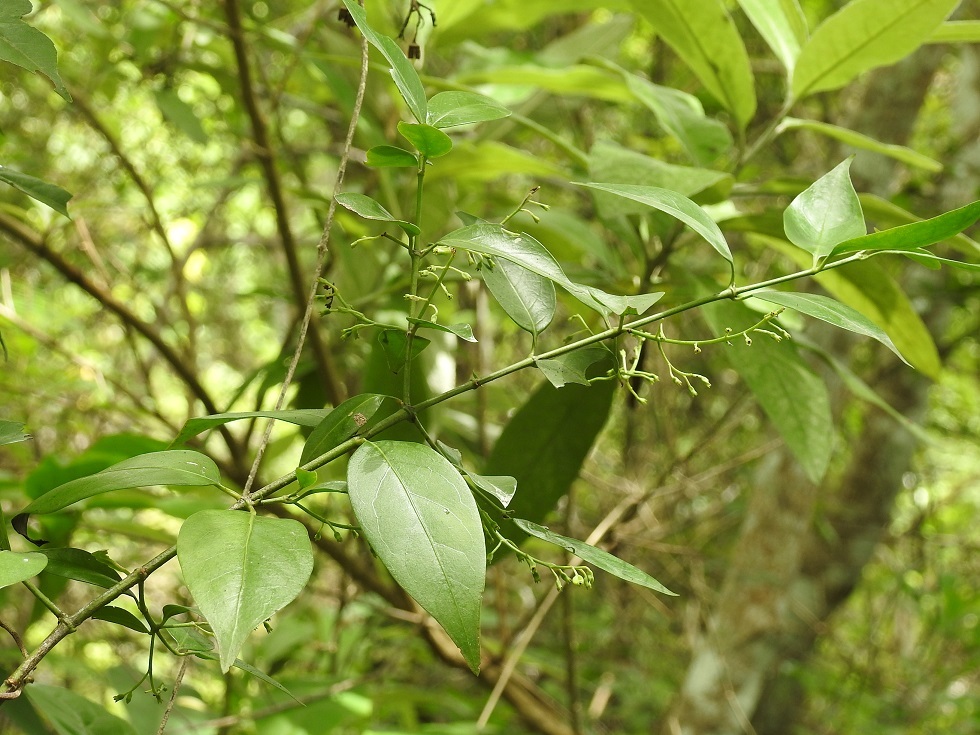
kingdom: Plantae
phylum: Tracheophyta
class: Magnoliopsida
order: Gentianales
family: Rubiaceae
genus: Chiococca
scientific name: Chiococca alba
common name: Snowberry
